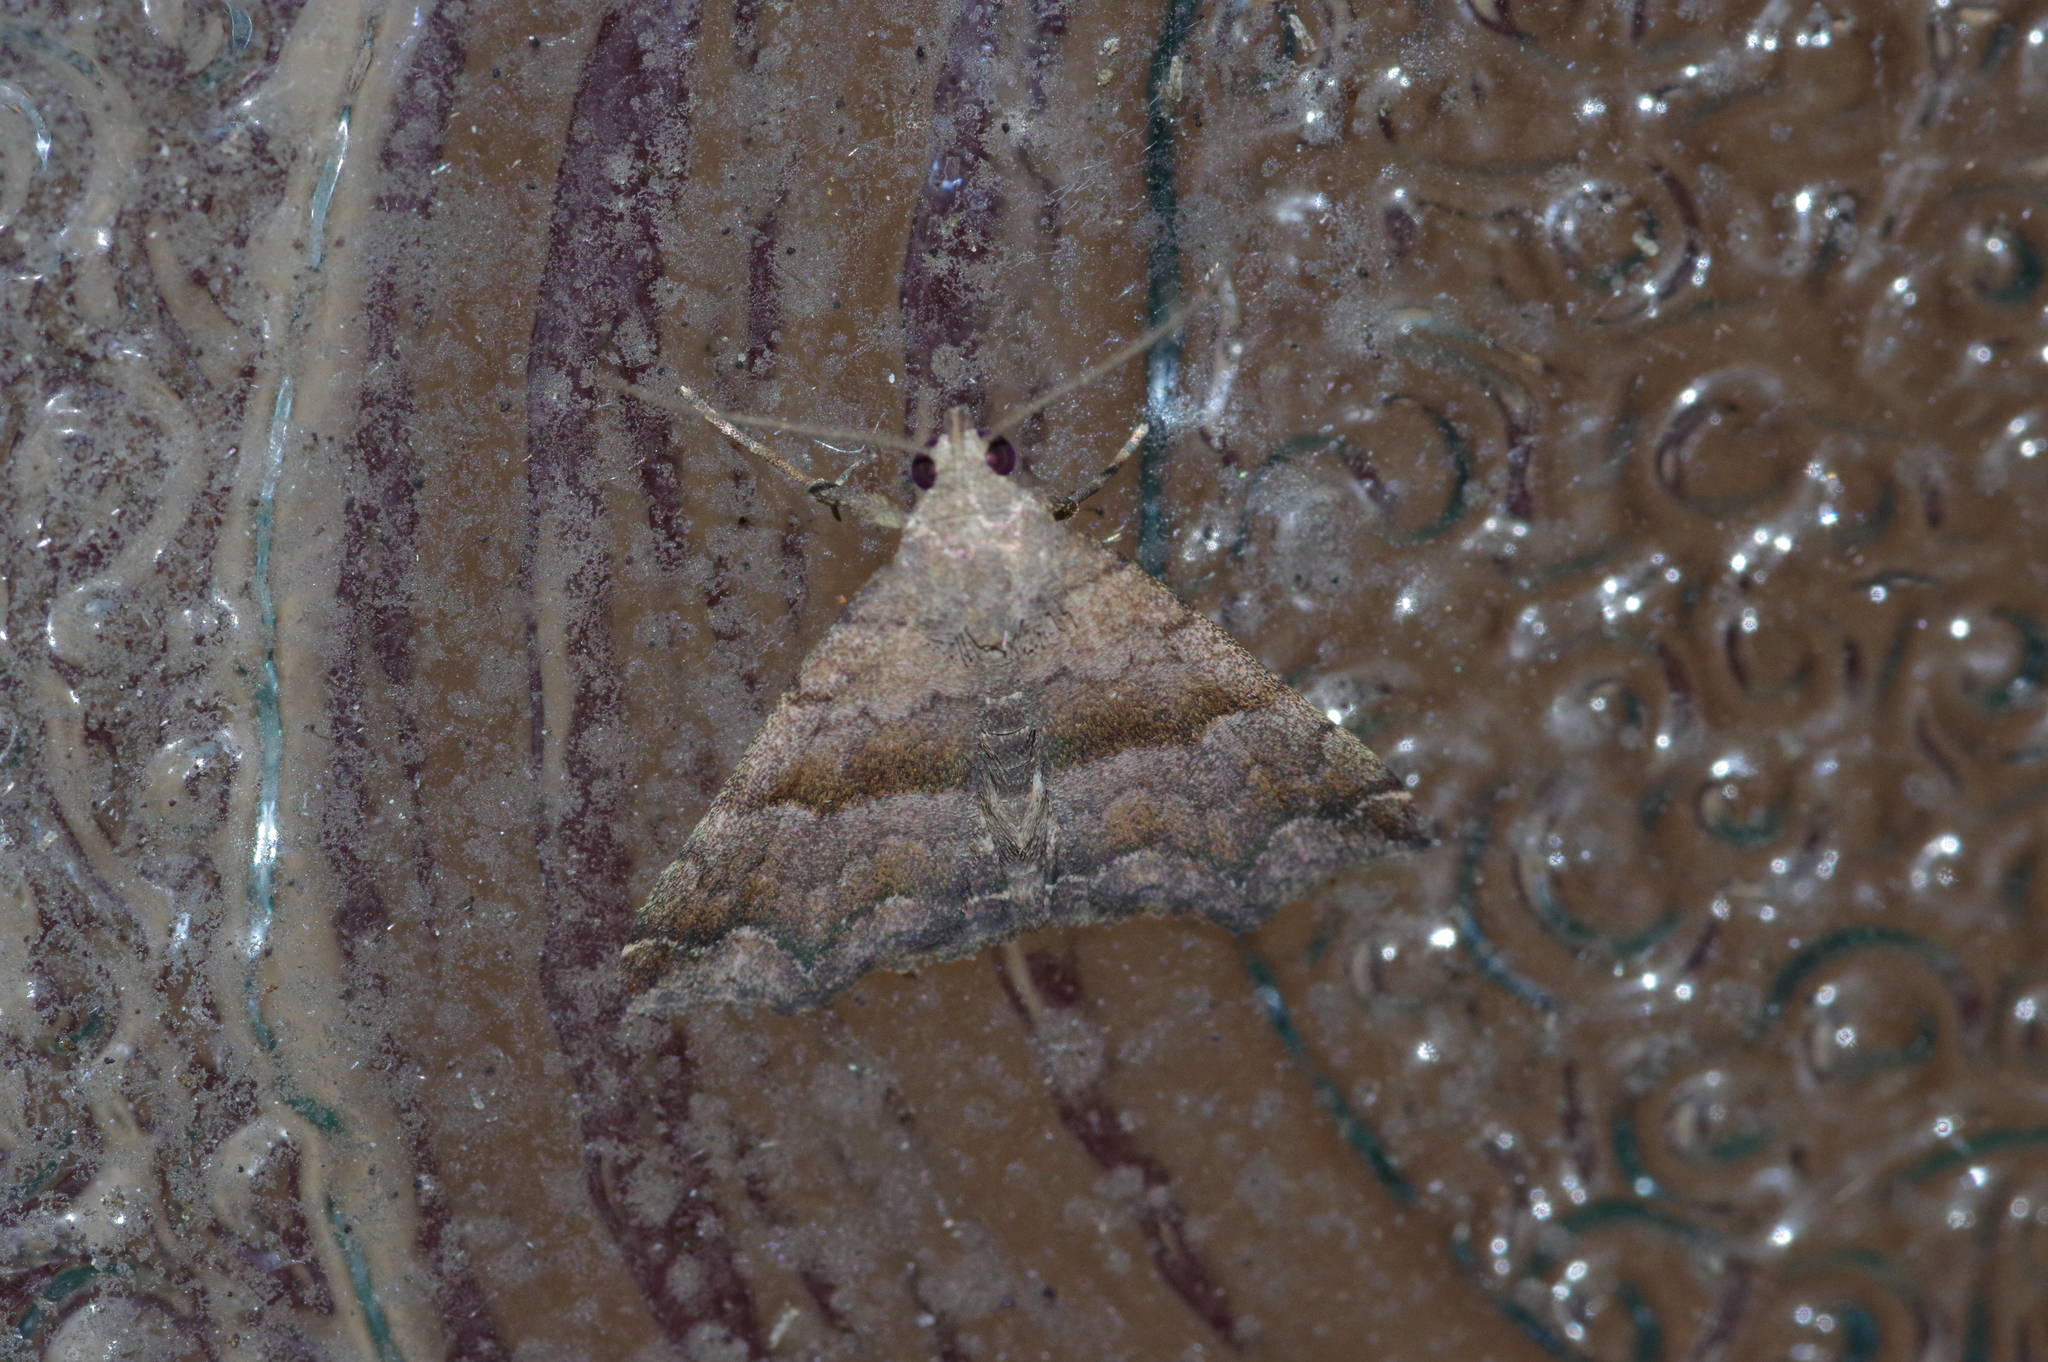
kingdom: Animalia
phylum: Arthropoda
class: Insecta
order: Lepidoptera
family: Erebidae
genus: Polypogon
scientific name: Polypogon Hipoepa fractalis
